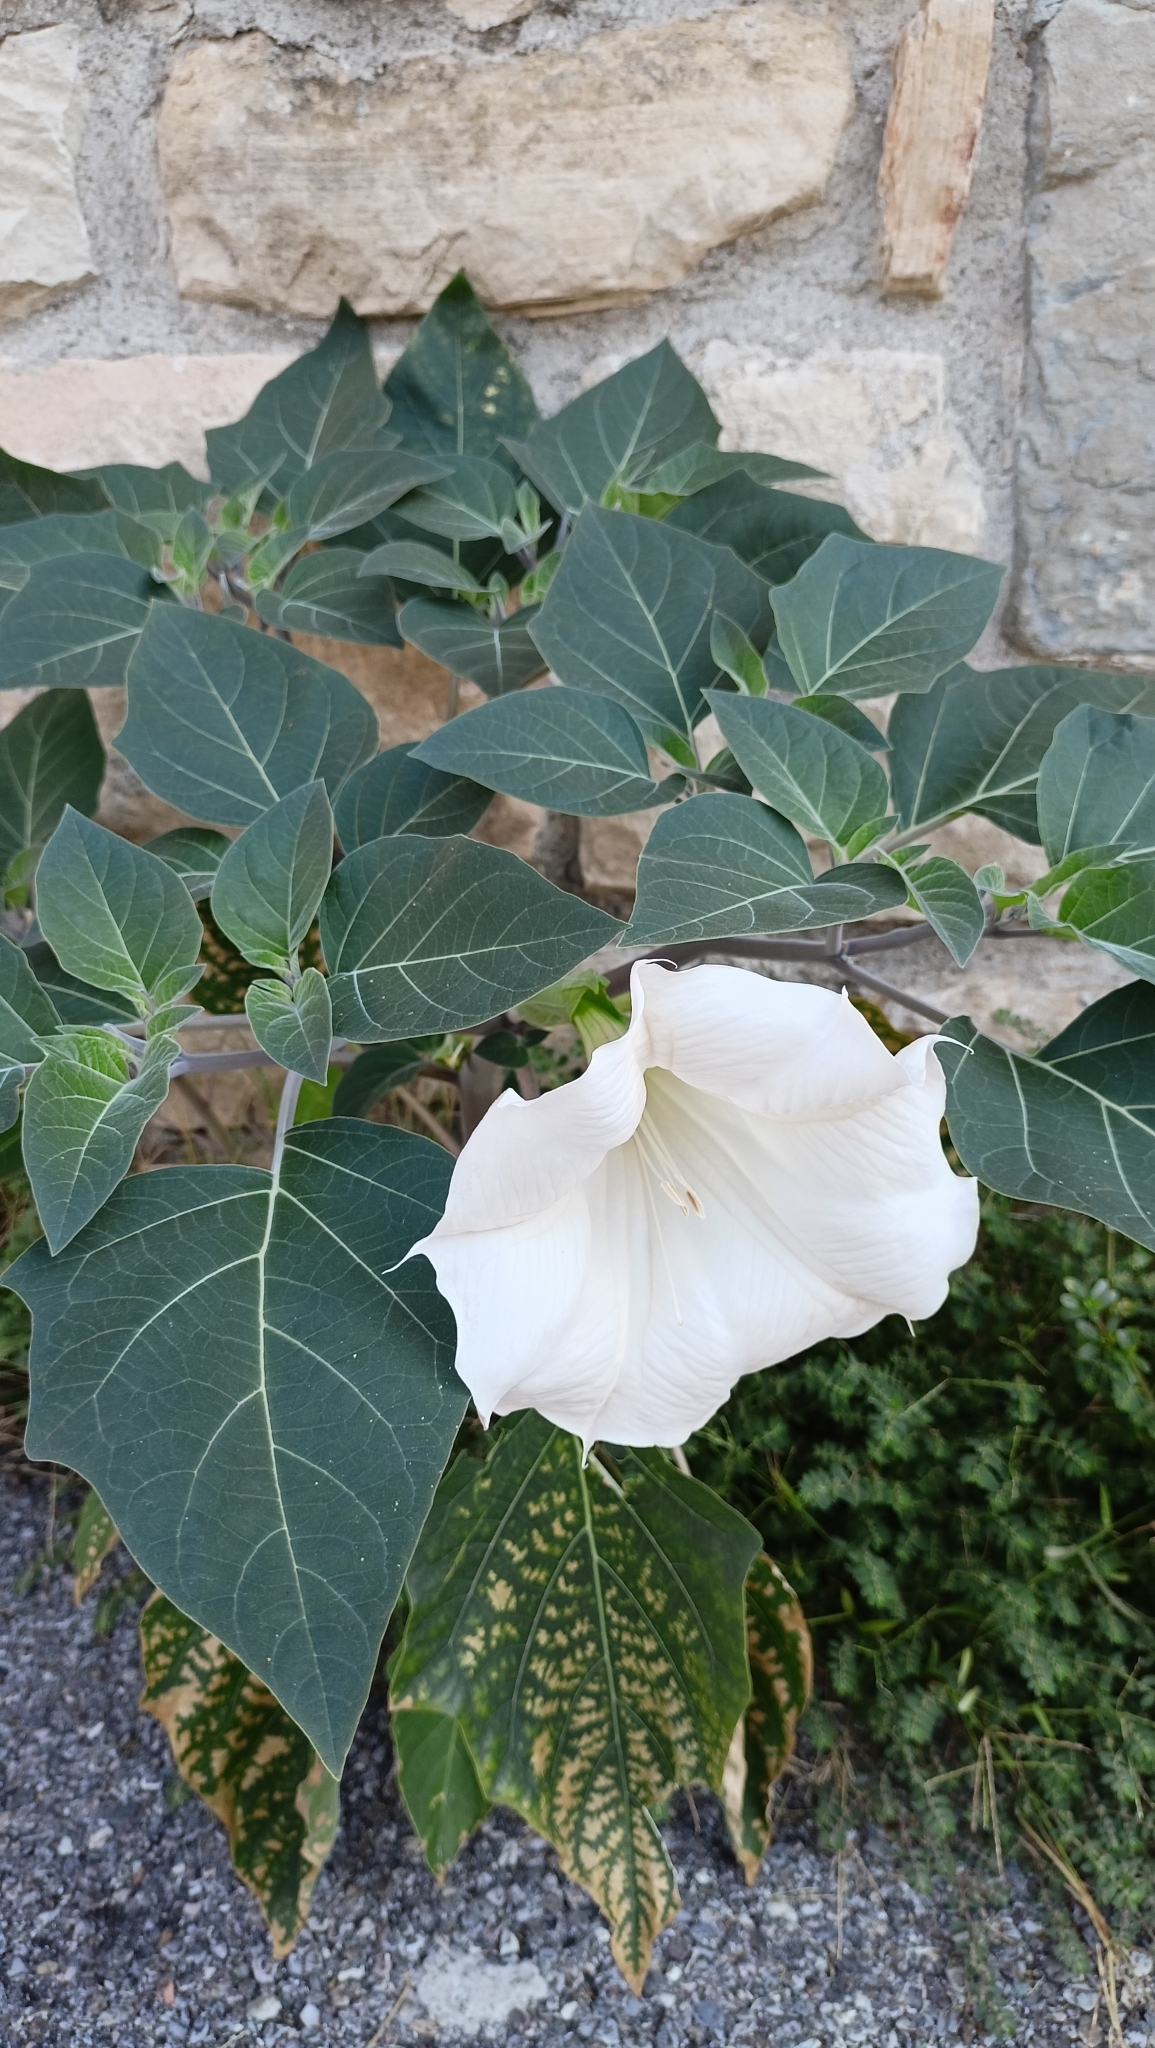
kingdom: Plantae
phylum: Tracheophyta
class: Magnoliopsida
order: Solanales
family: Solanaceae
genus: Datura
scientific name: Datura wrightii
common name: Sacred thorn-apple
